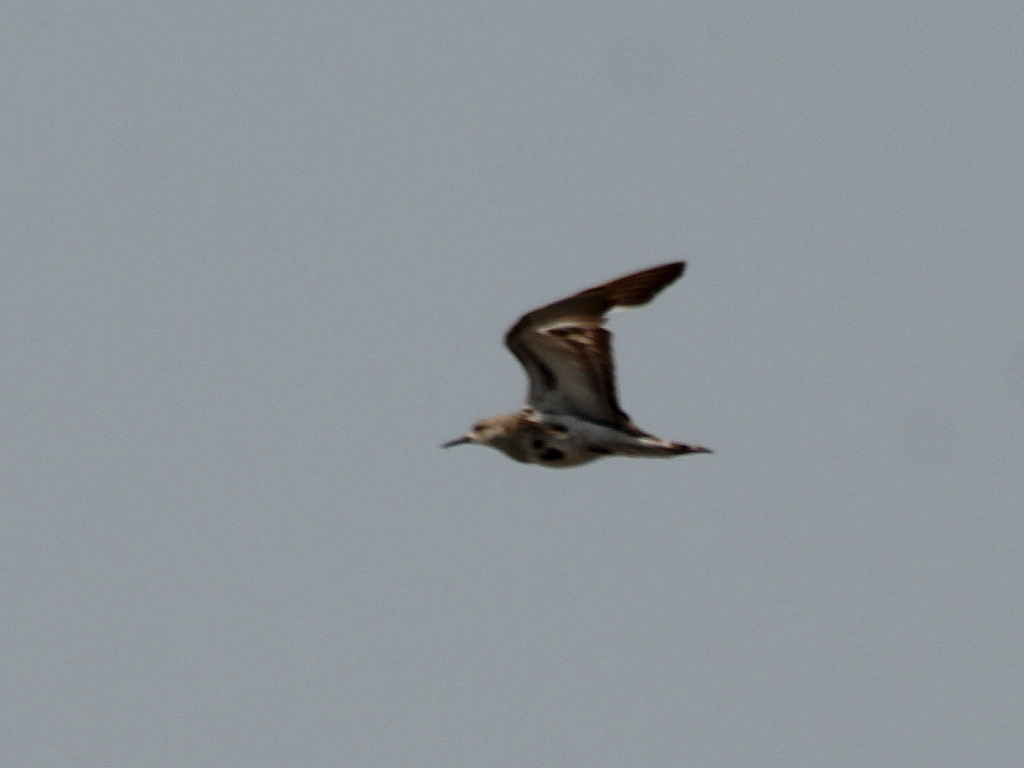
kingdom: Animalia
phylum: Chordata
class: Aves
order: Charadriiformes
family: Scolopacidae
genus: Calidris
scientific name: Calidris pugnax
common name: Ruff
